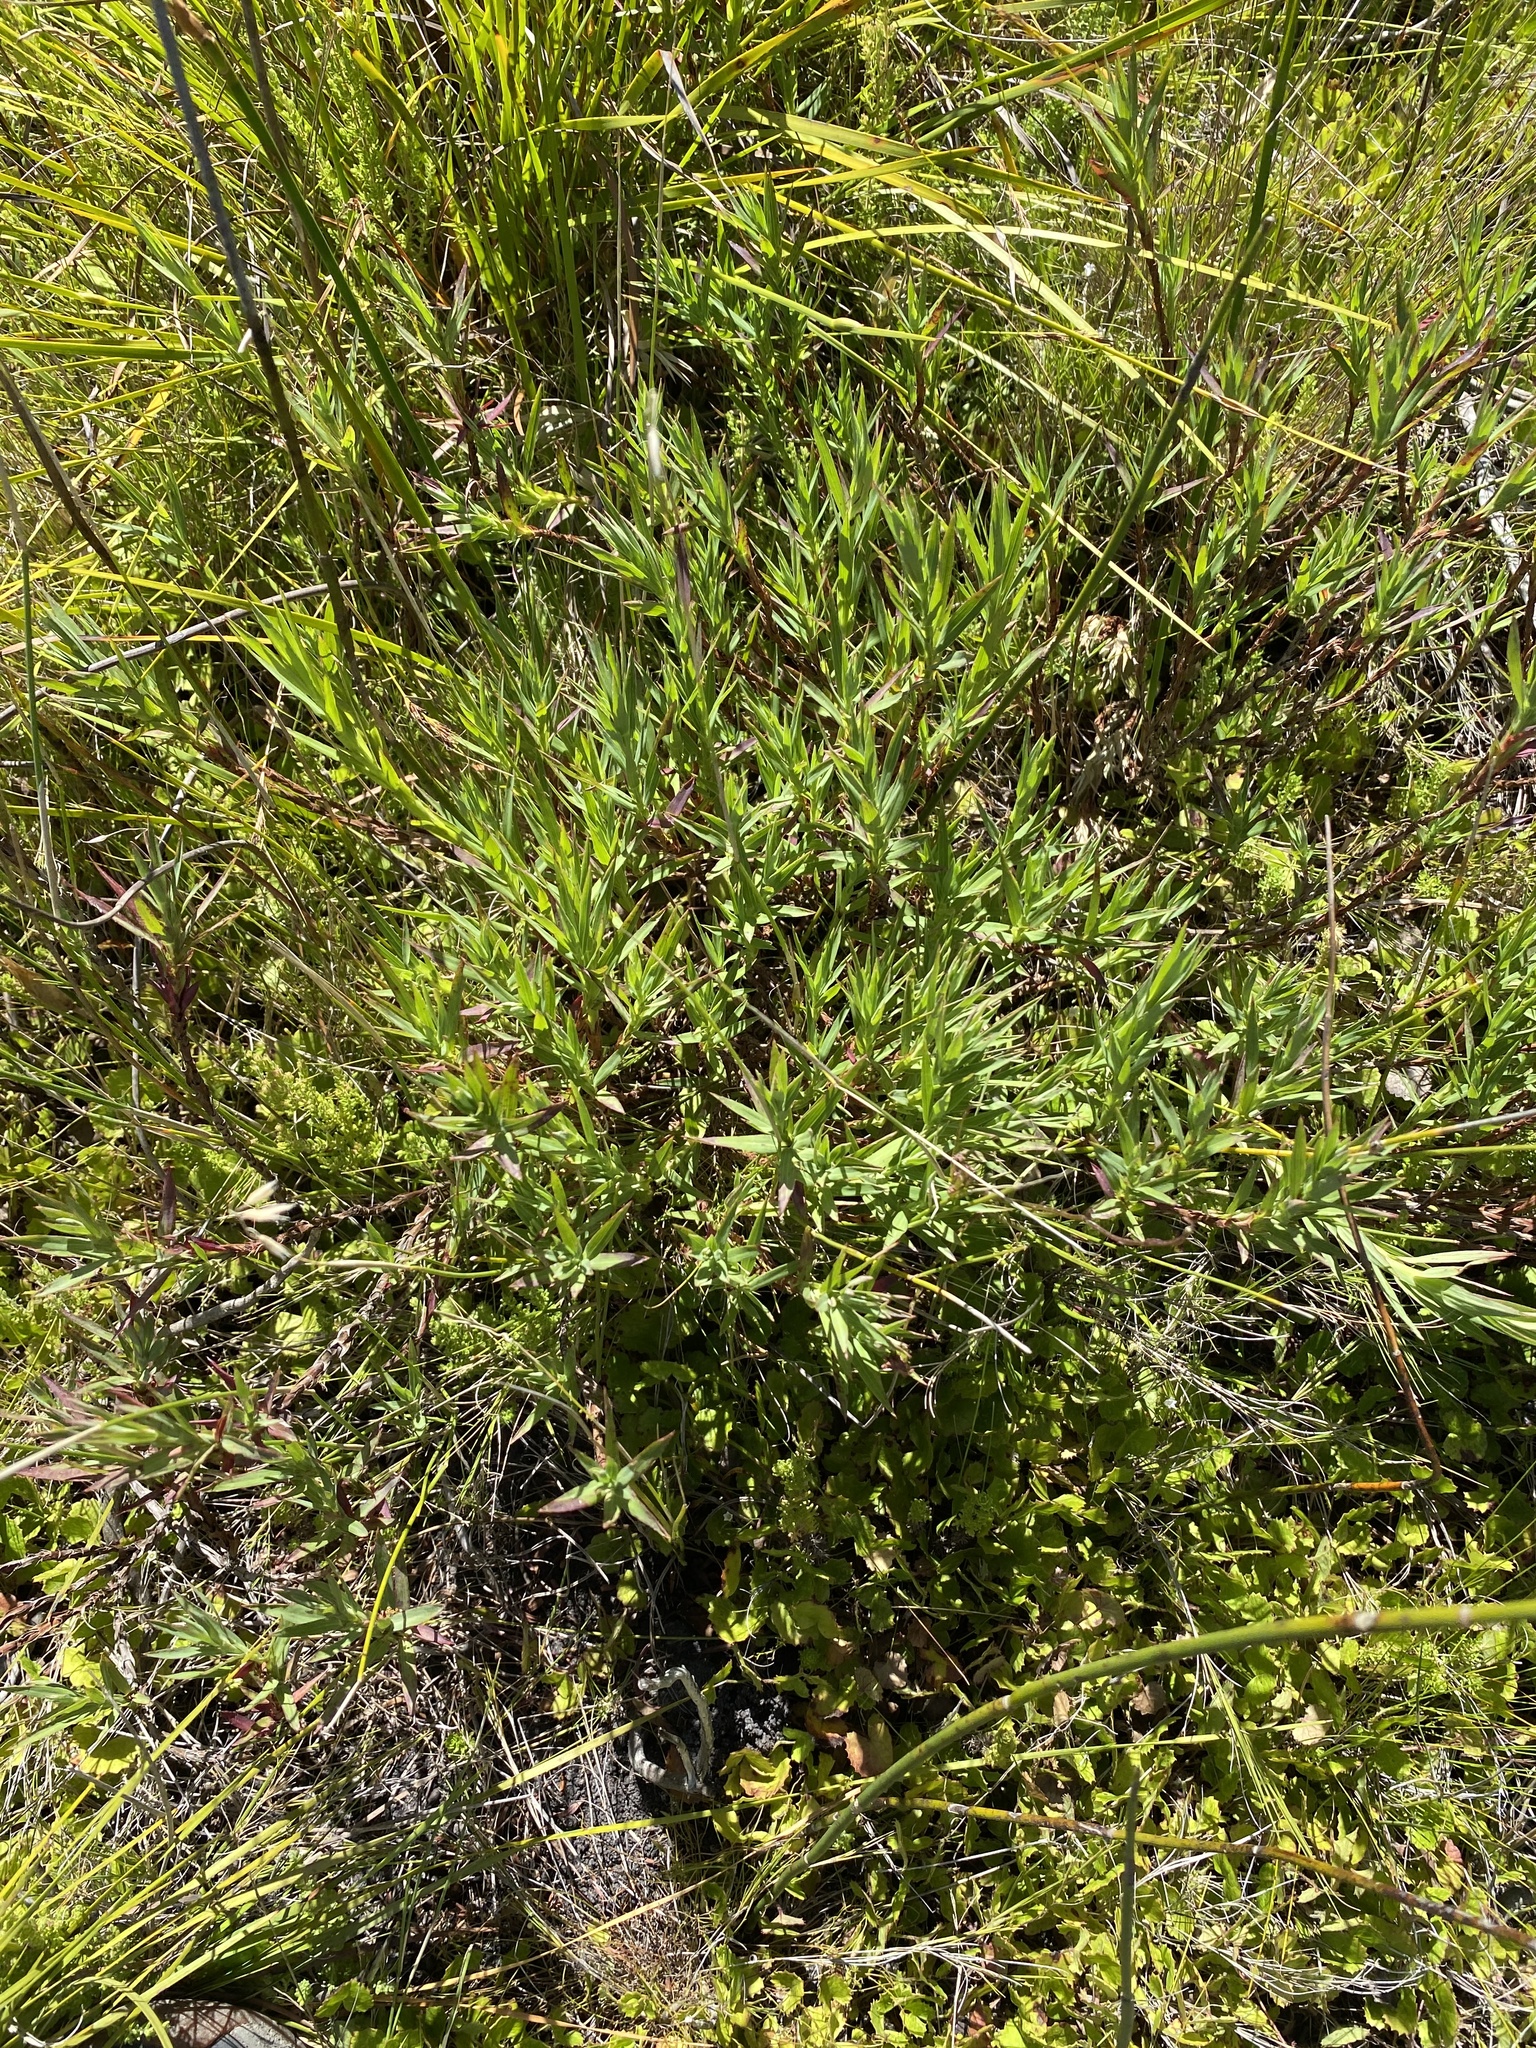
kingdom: Plantae
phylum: Tracheophyta
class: Magnoliopsida
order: Rosales
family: Rosaceae
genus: Cliffortia
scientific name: Cliffortia graminea
